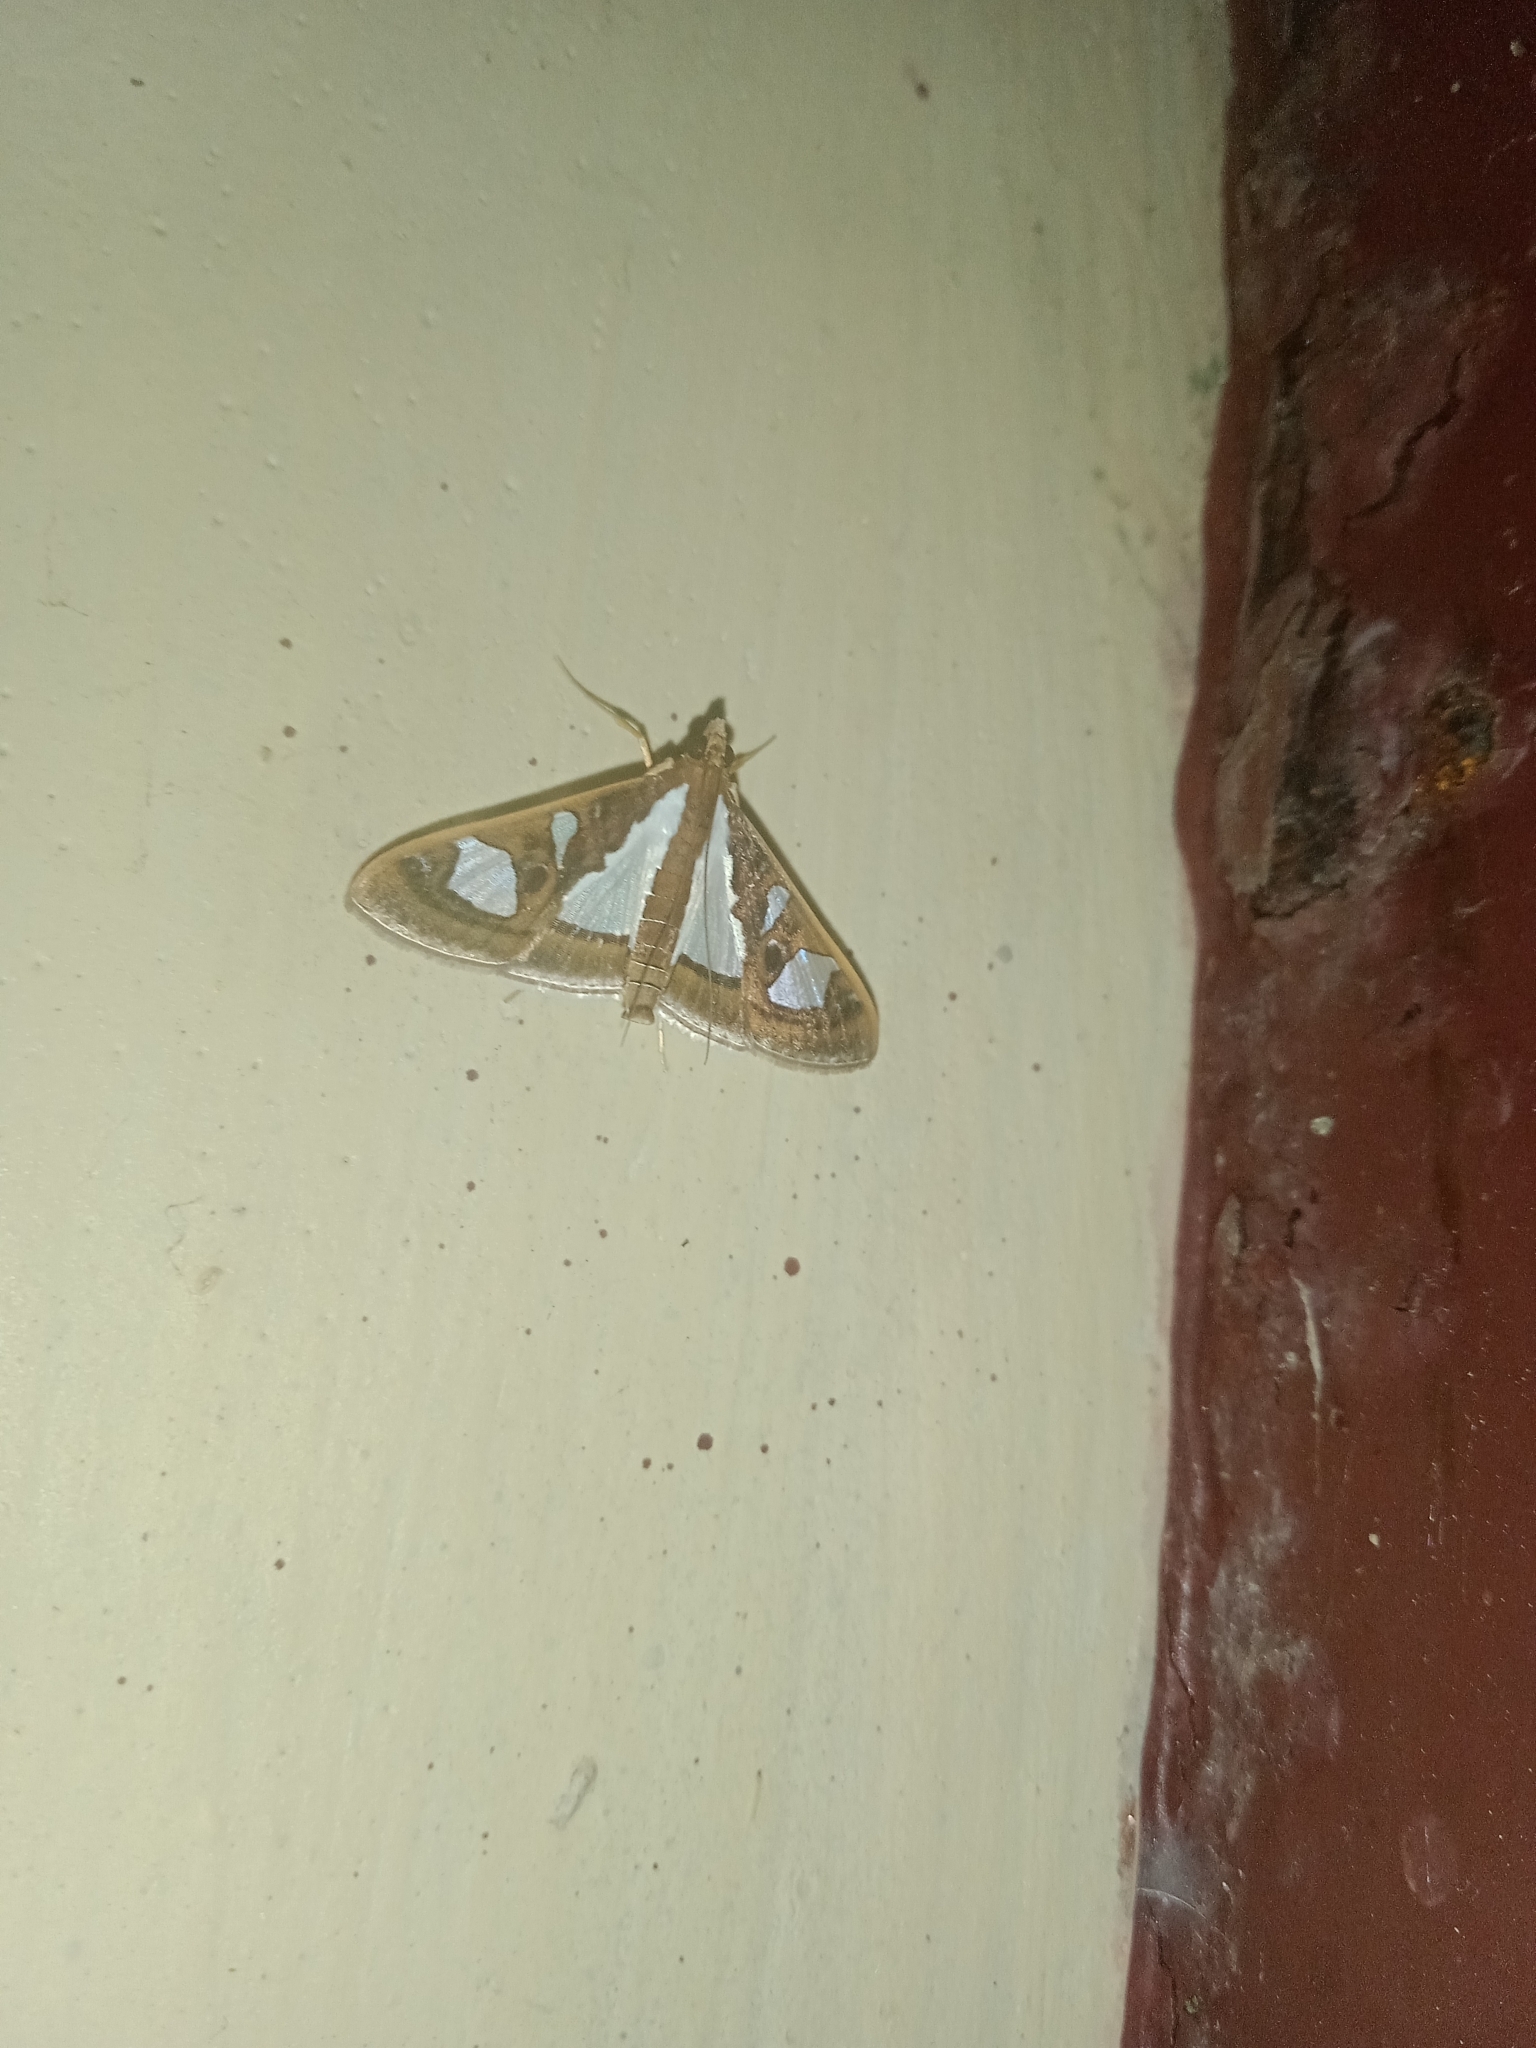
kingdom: Animalia
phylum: Arthropoda
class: Insecta
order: Lepidoptera
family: Crambidae
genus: Glyphodes
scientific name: Glyphodes bivitralis
